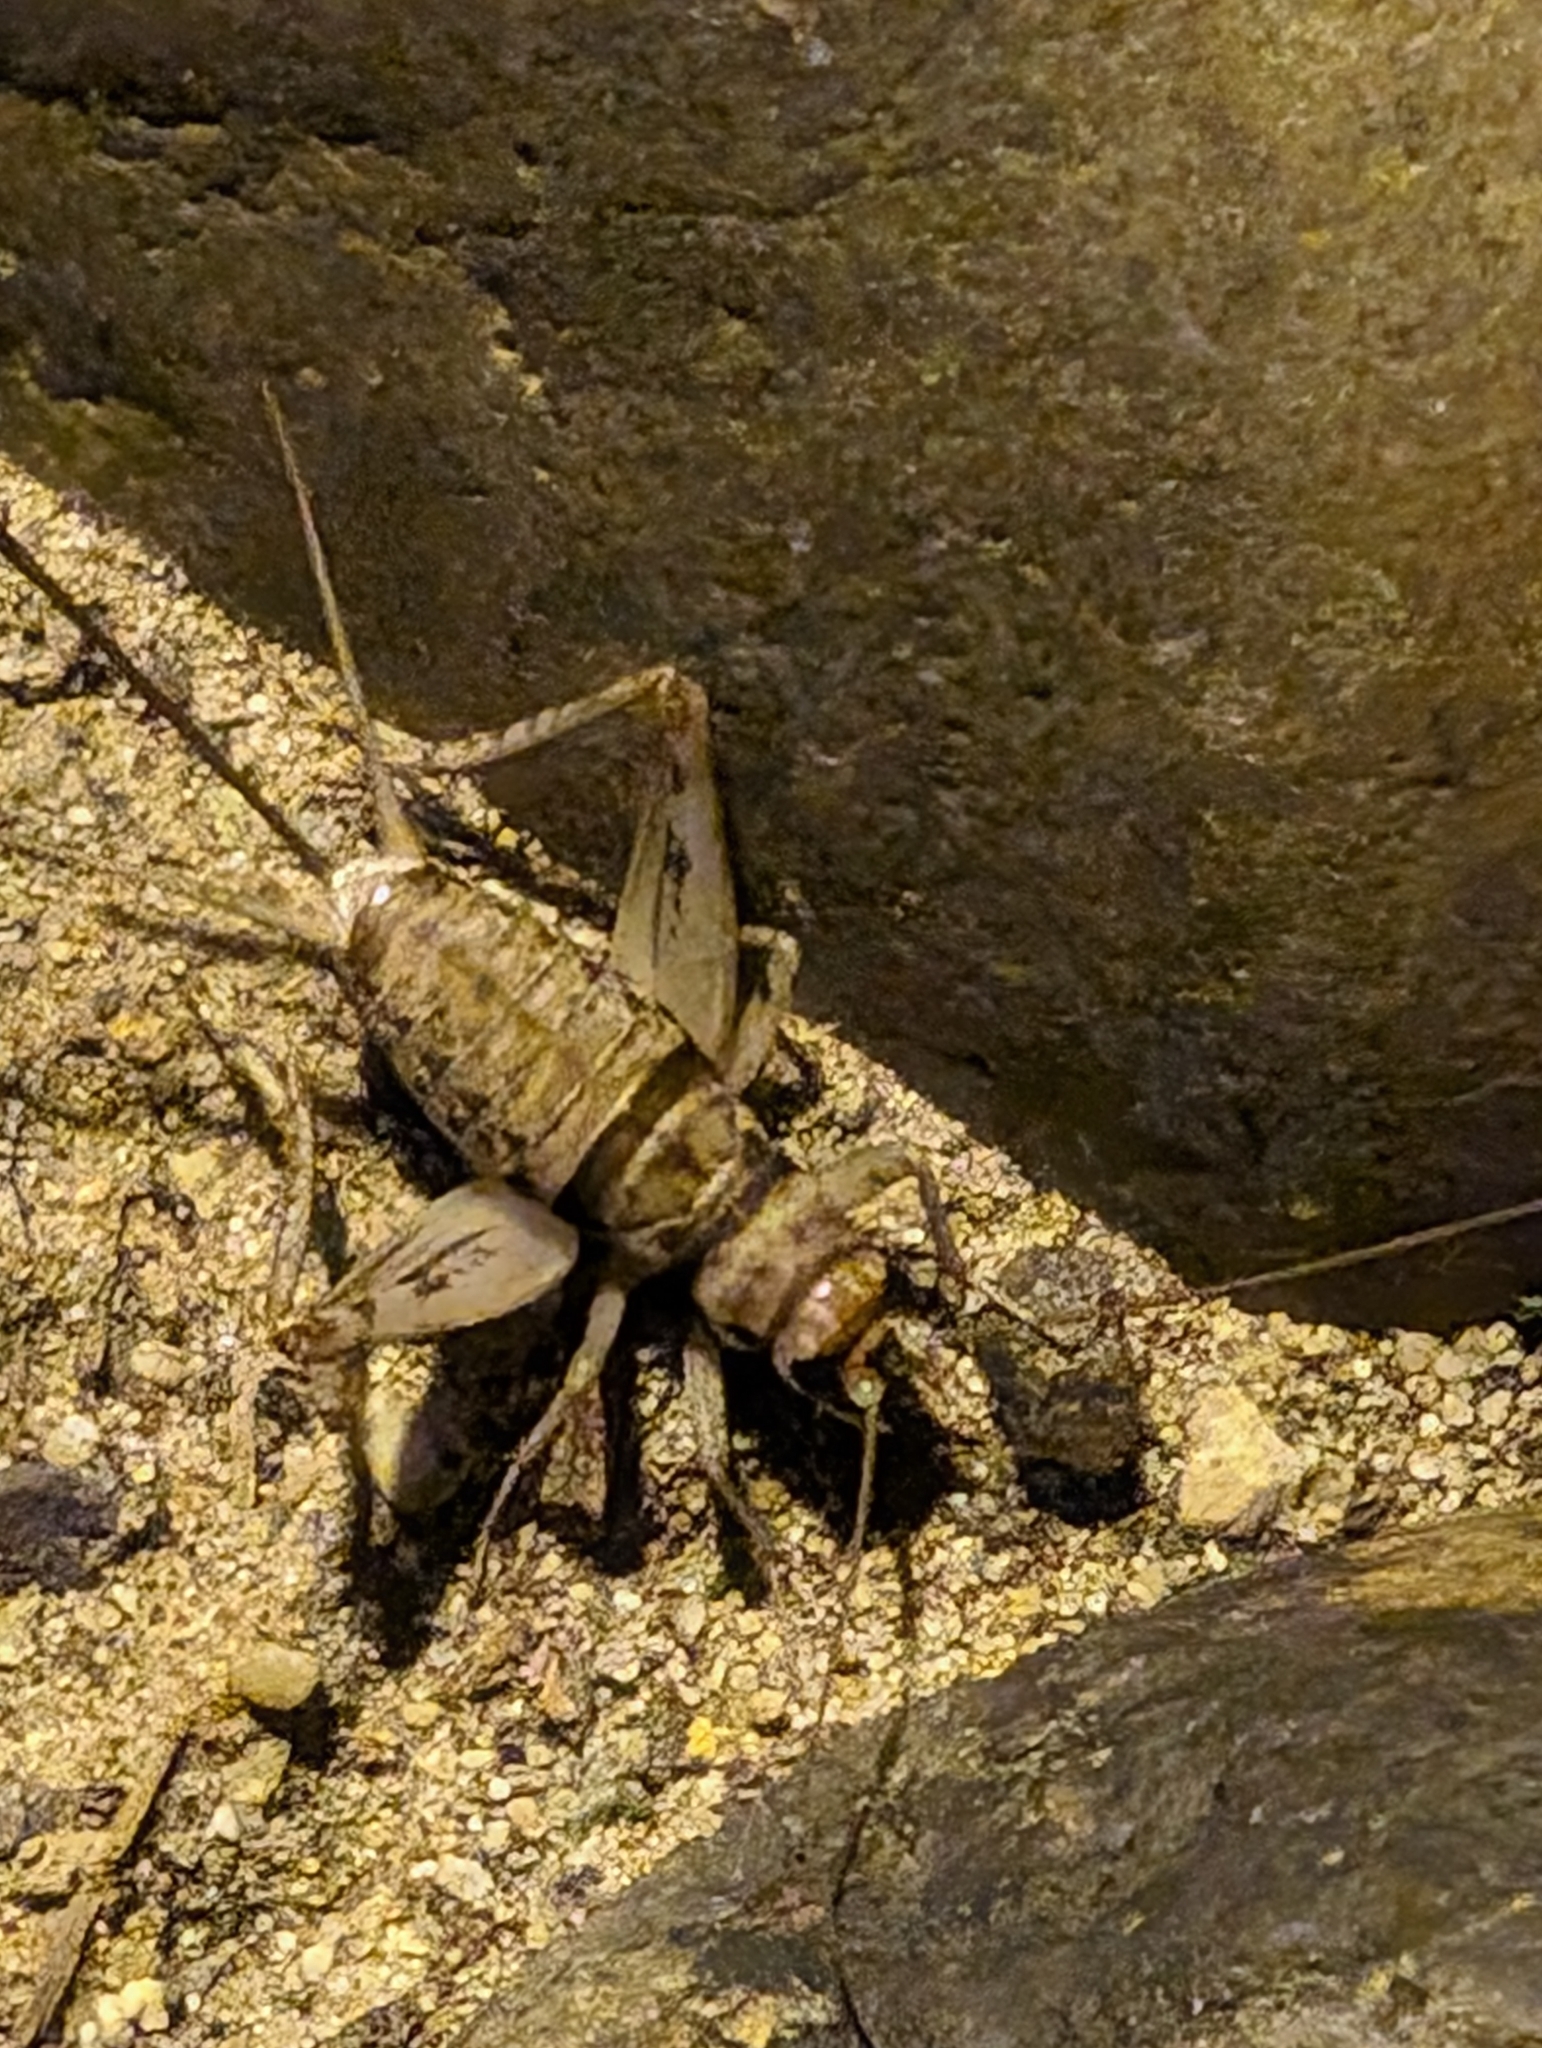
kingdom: Animalia
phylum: Arthropoda
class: Insecta
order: Orthoptera
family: Gryllidae
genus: Gryllodes
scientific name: Gryllodes sigillatus
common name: Tropical house cricket
